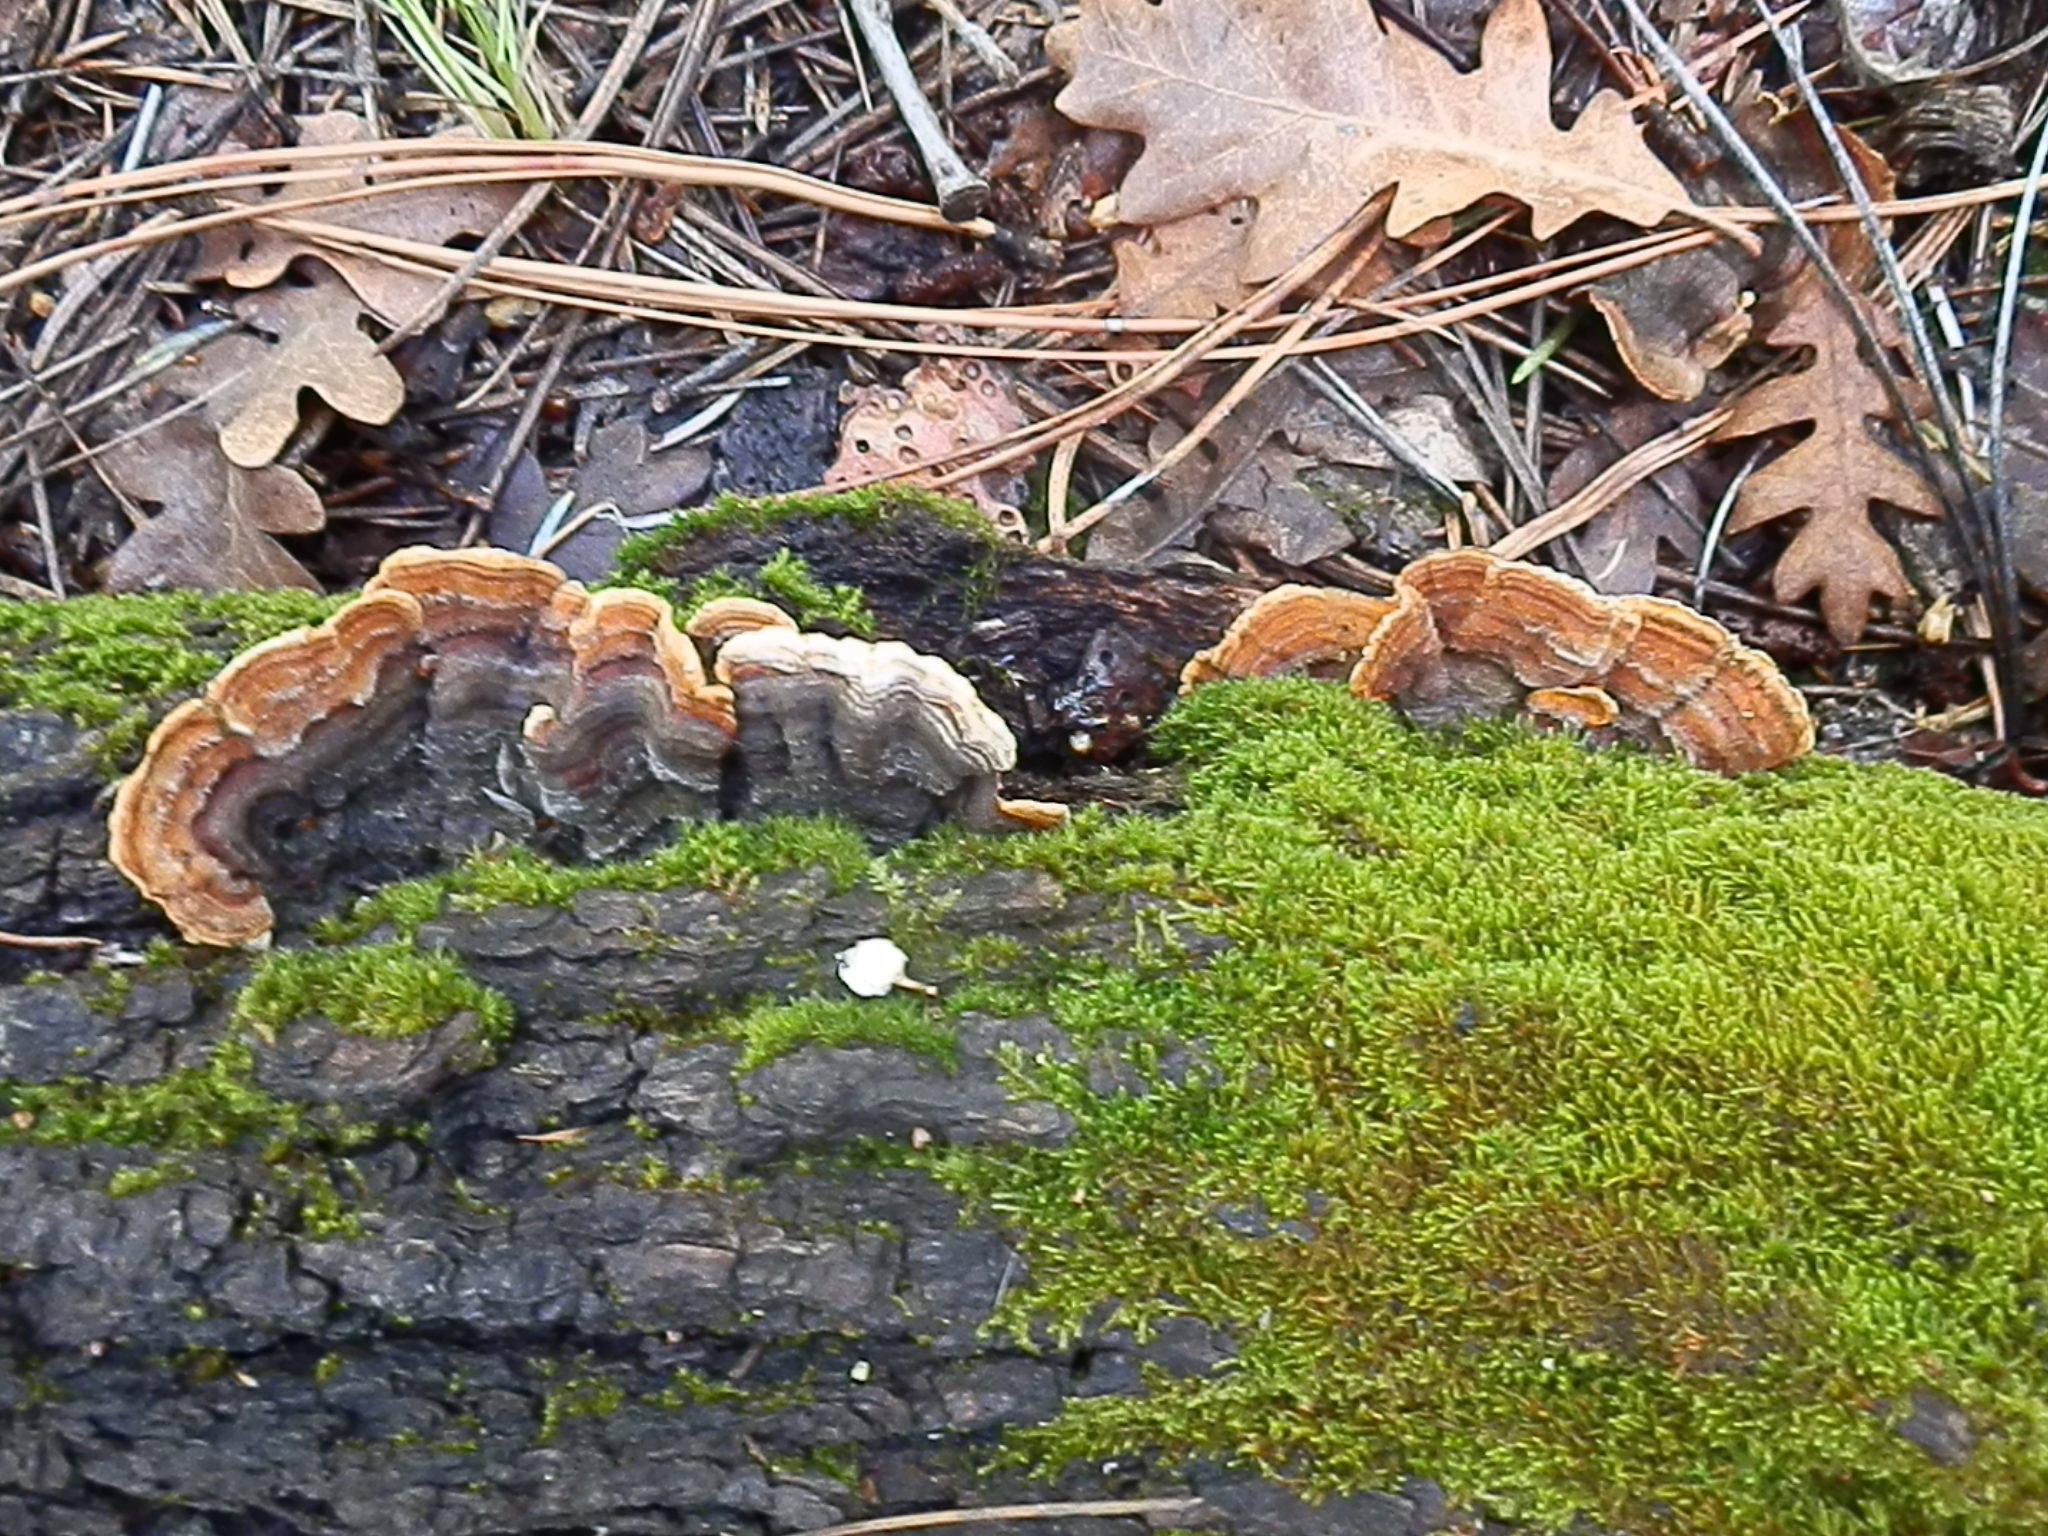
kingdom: Fungi
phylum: Basidiomycota
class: Agaricomycetes
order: Russulales
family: Stereaceae
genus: Stereum
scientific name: Stereum hirsutum
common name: Hairy curtain crust
